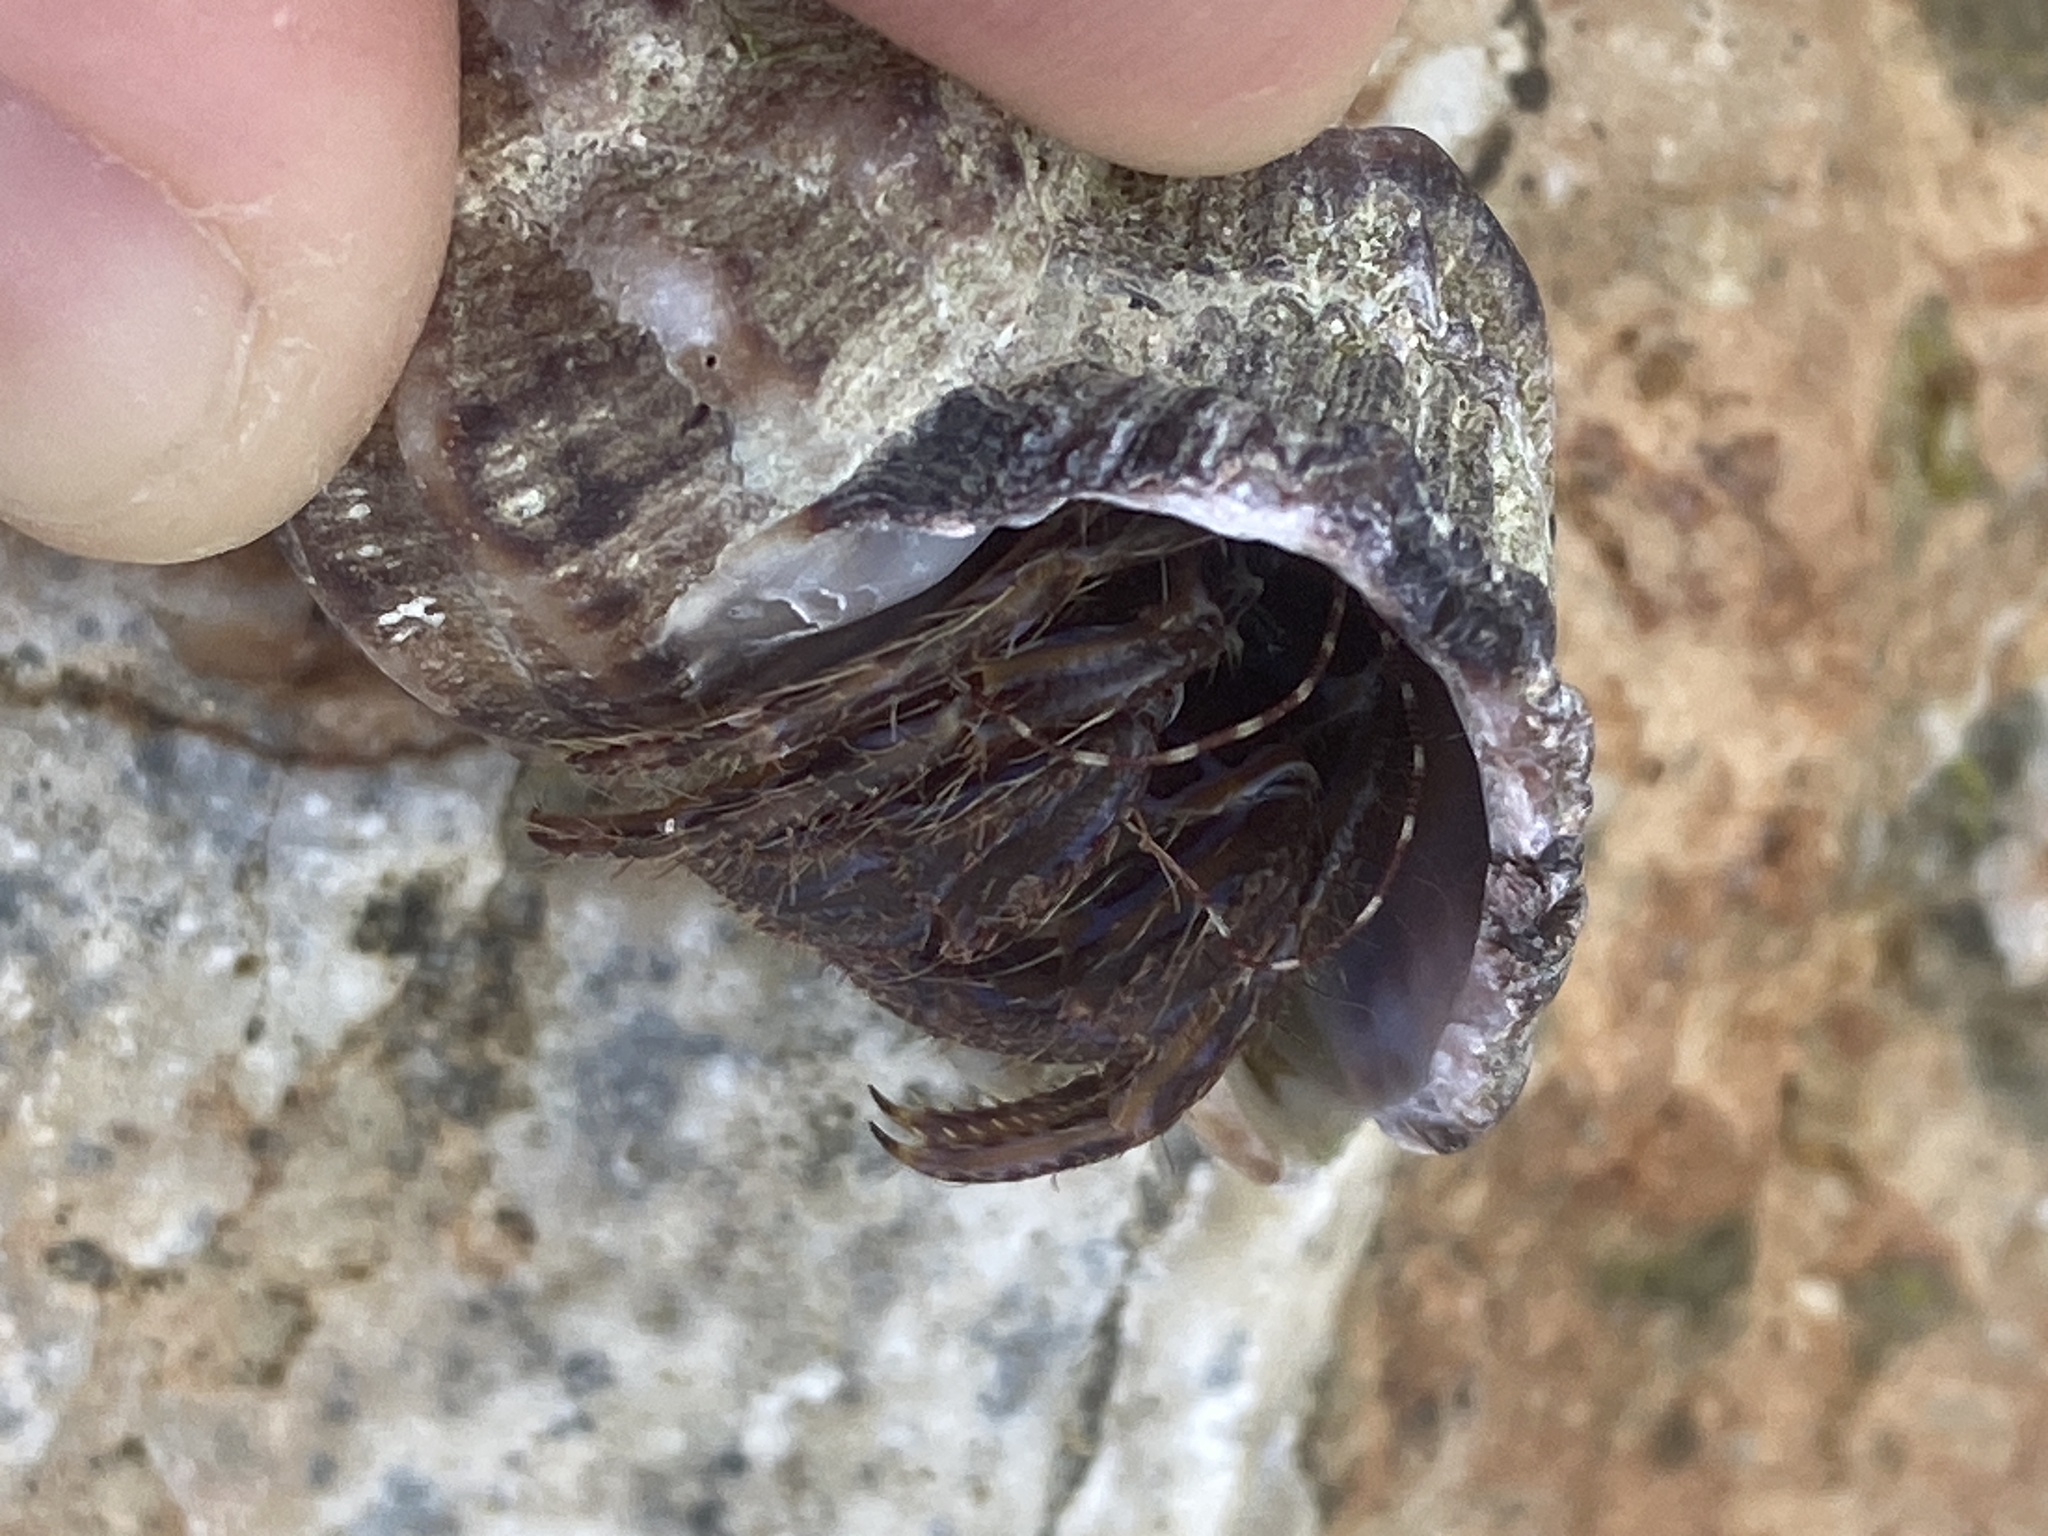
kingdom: Animalia
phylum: Arthropoda
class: Malacostraca
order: Decapoda
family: Paguridae
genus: Pagurus
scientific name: Pagurus anachoretus
